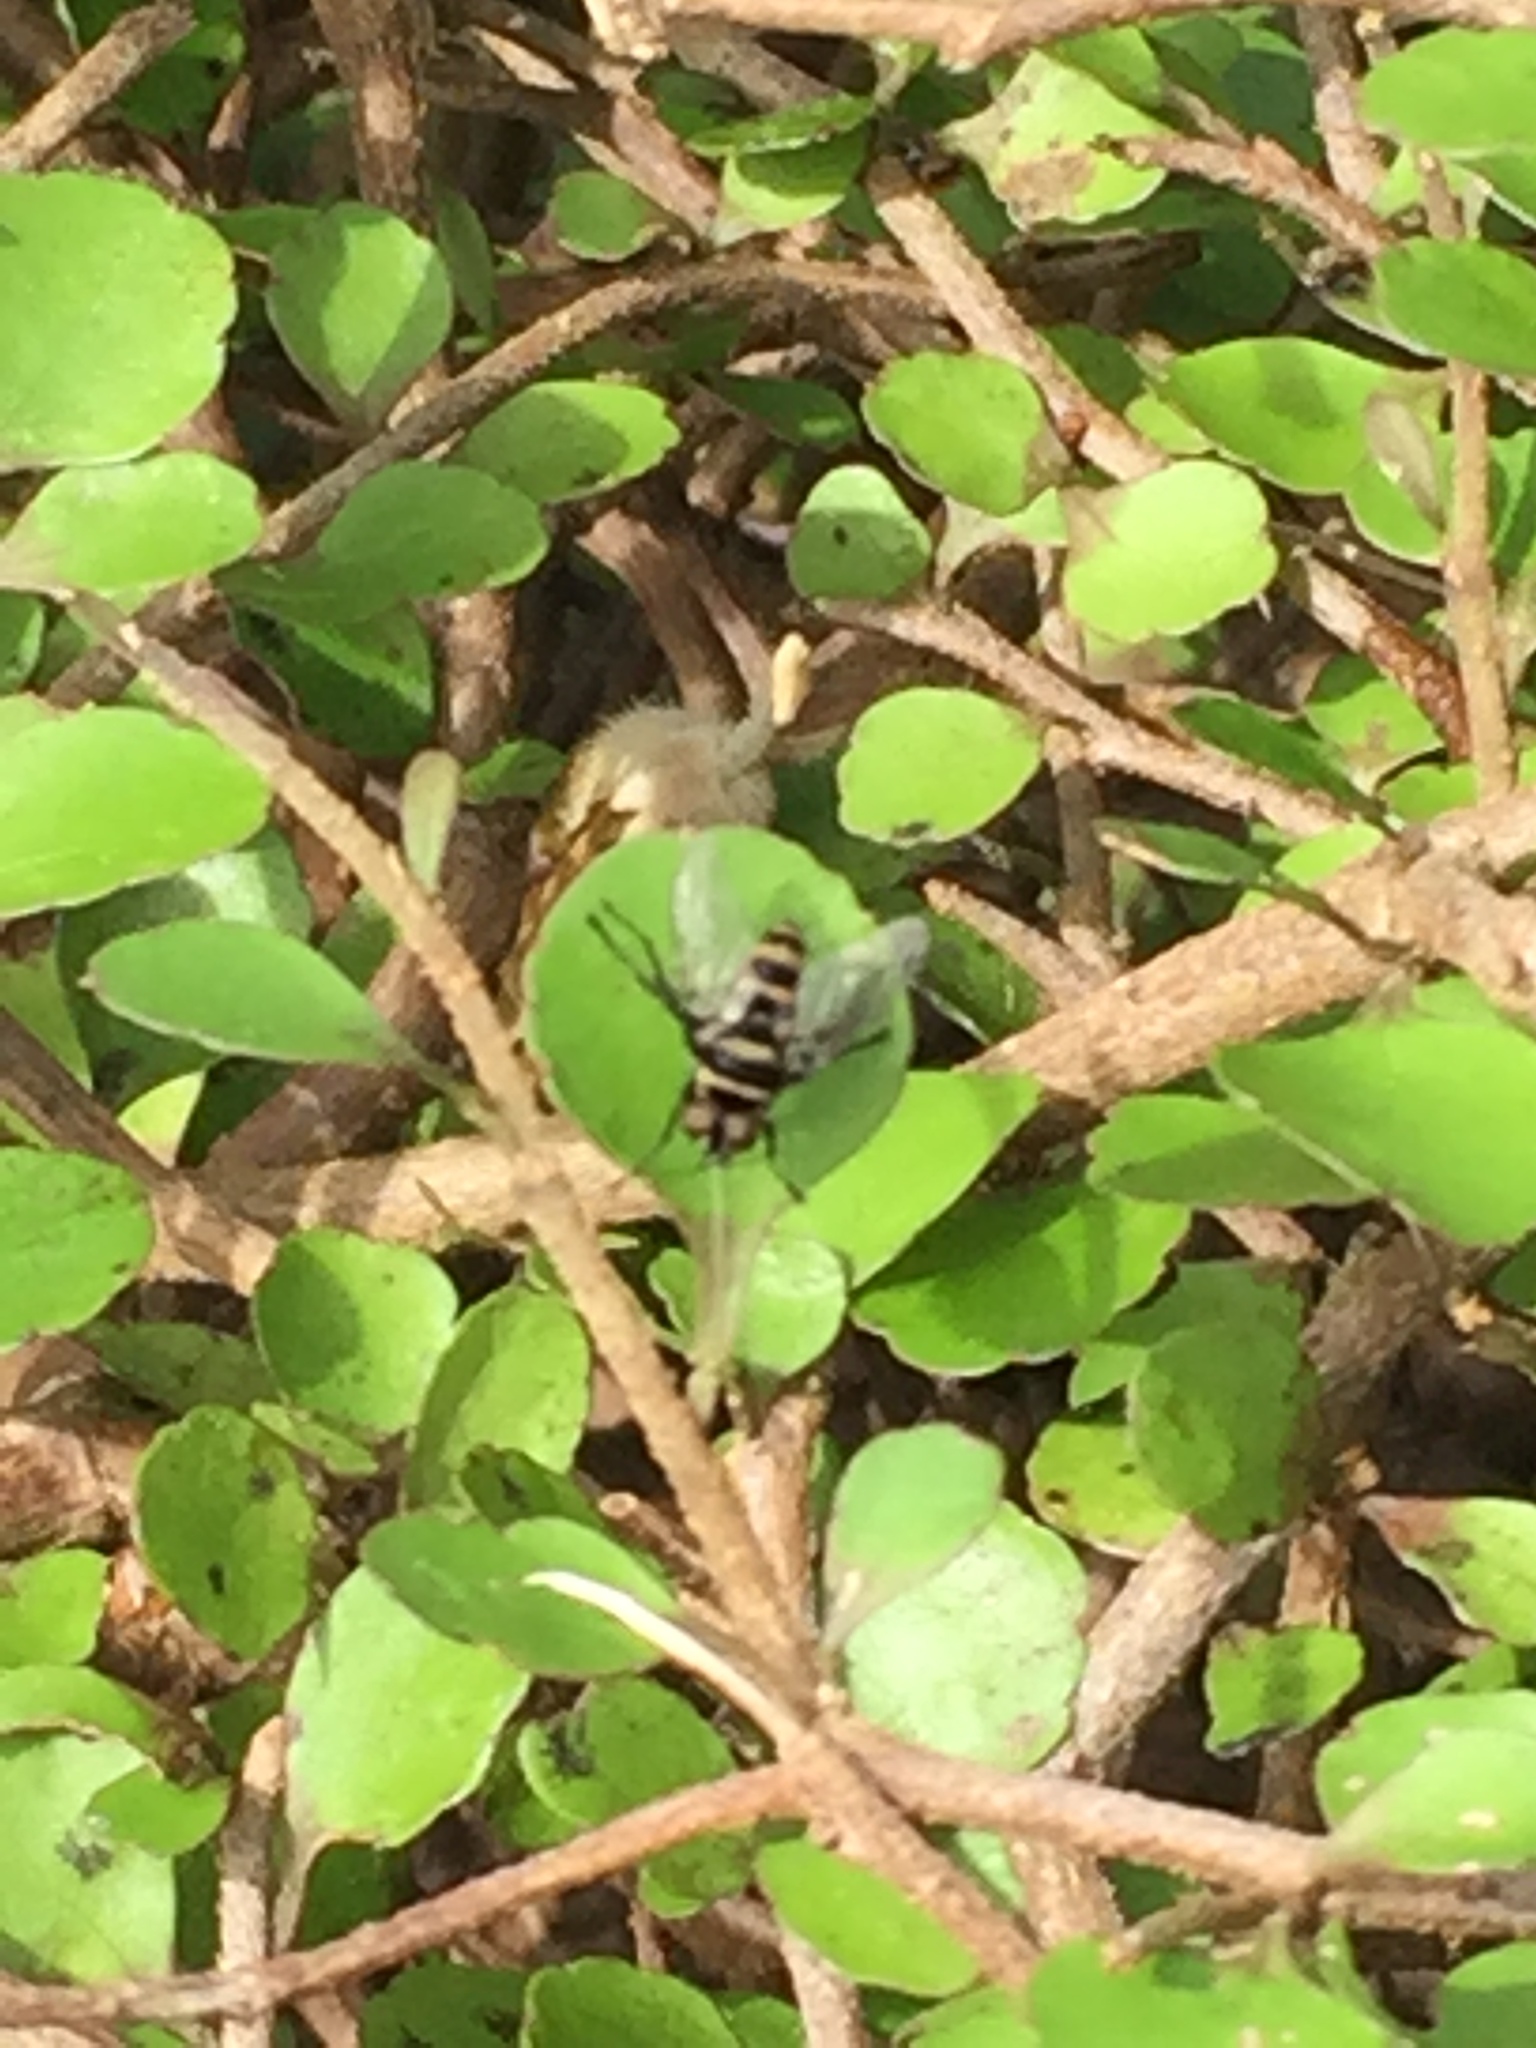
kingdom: Animalia
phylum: Arthropoda
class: Insecta
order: Diptera
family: Tachinidae
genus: Trigonospila
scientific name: Trigonospila brevifacies
